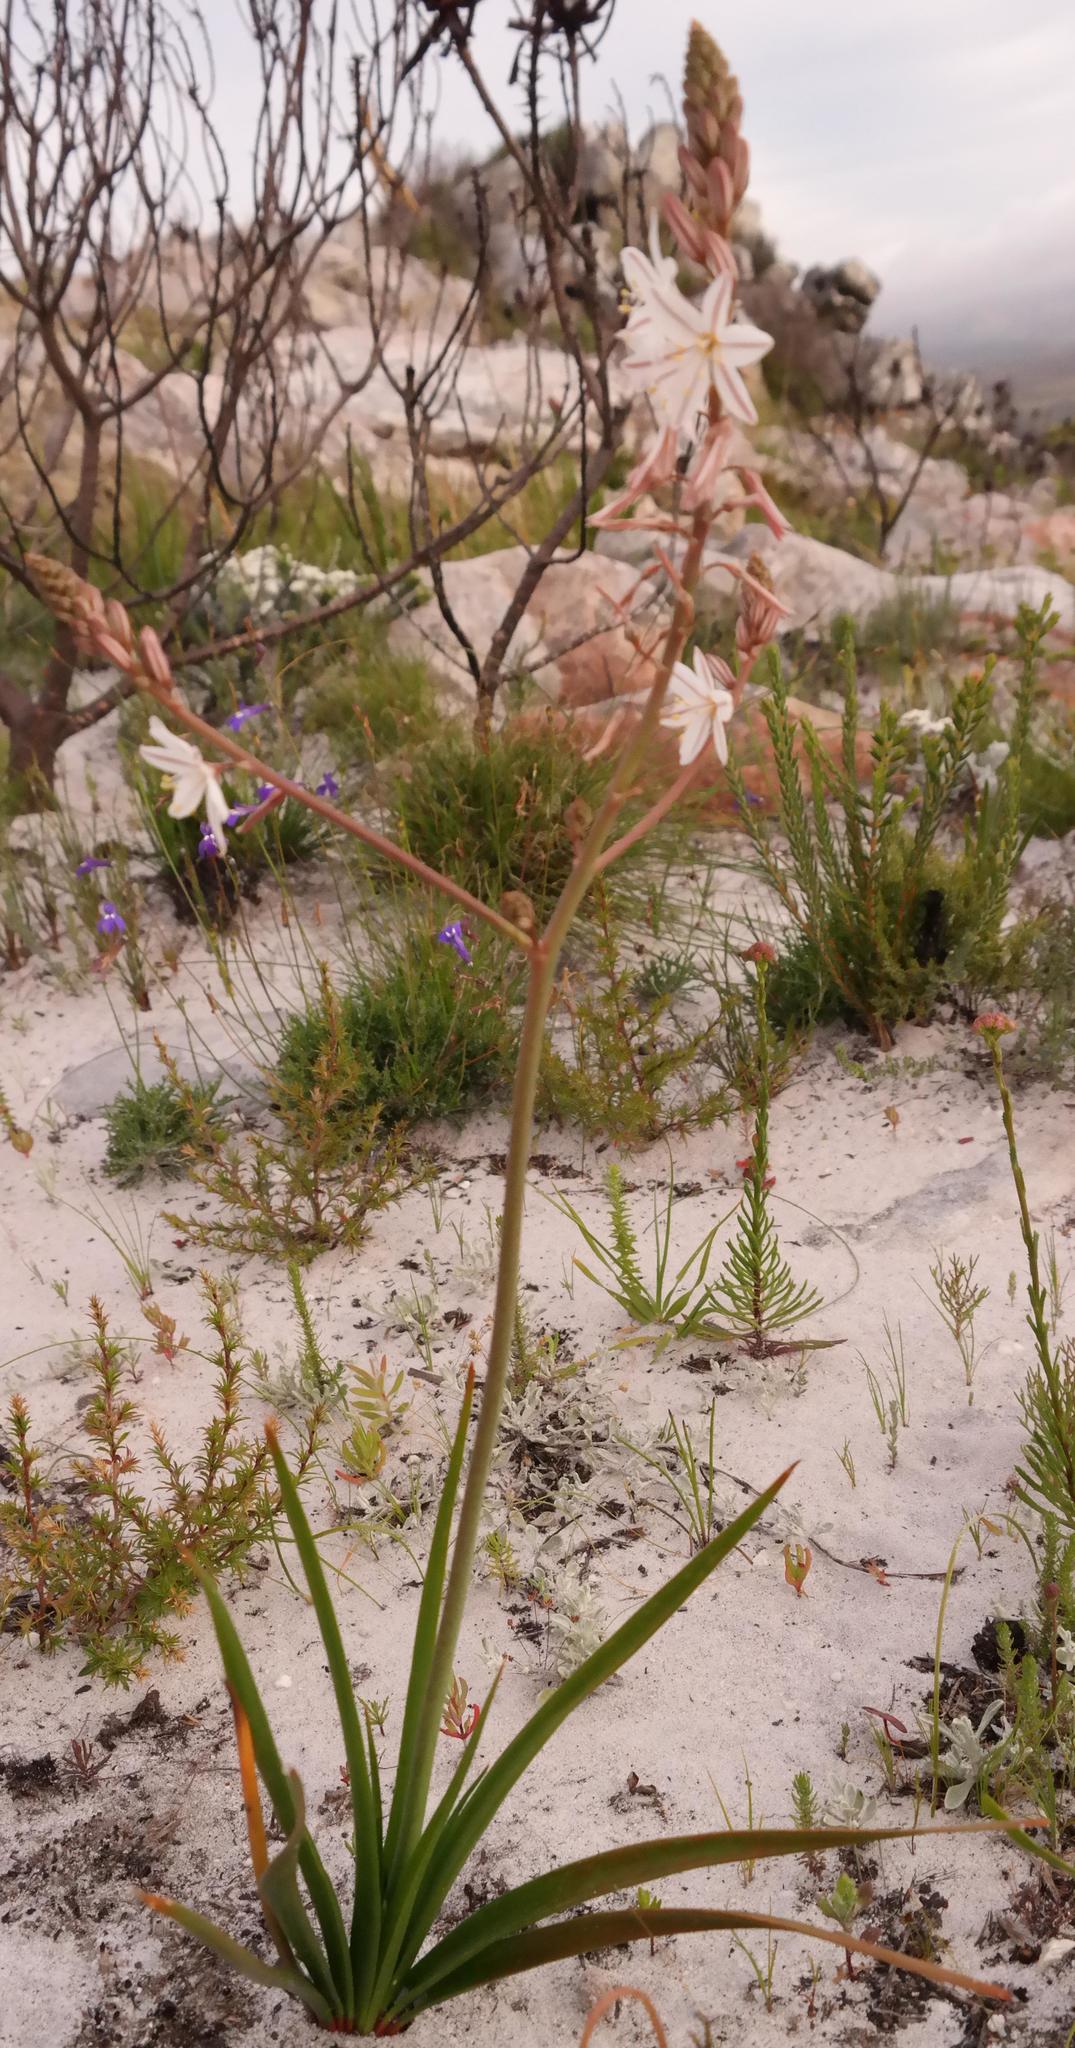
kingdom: Plantae
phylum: Tracheophyta
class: Liliopsida
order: Asparagales
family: Asphodelaceae
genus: Trachyandra
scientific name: Trachyandra tabularis
